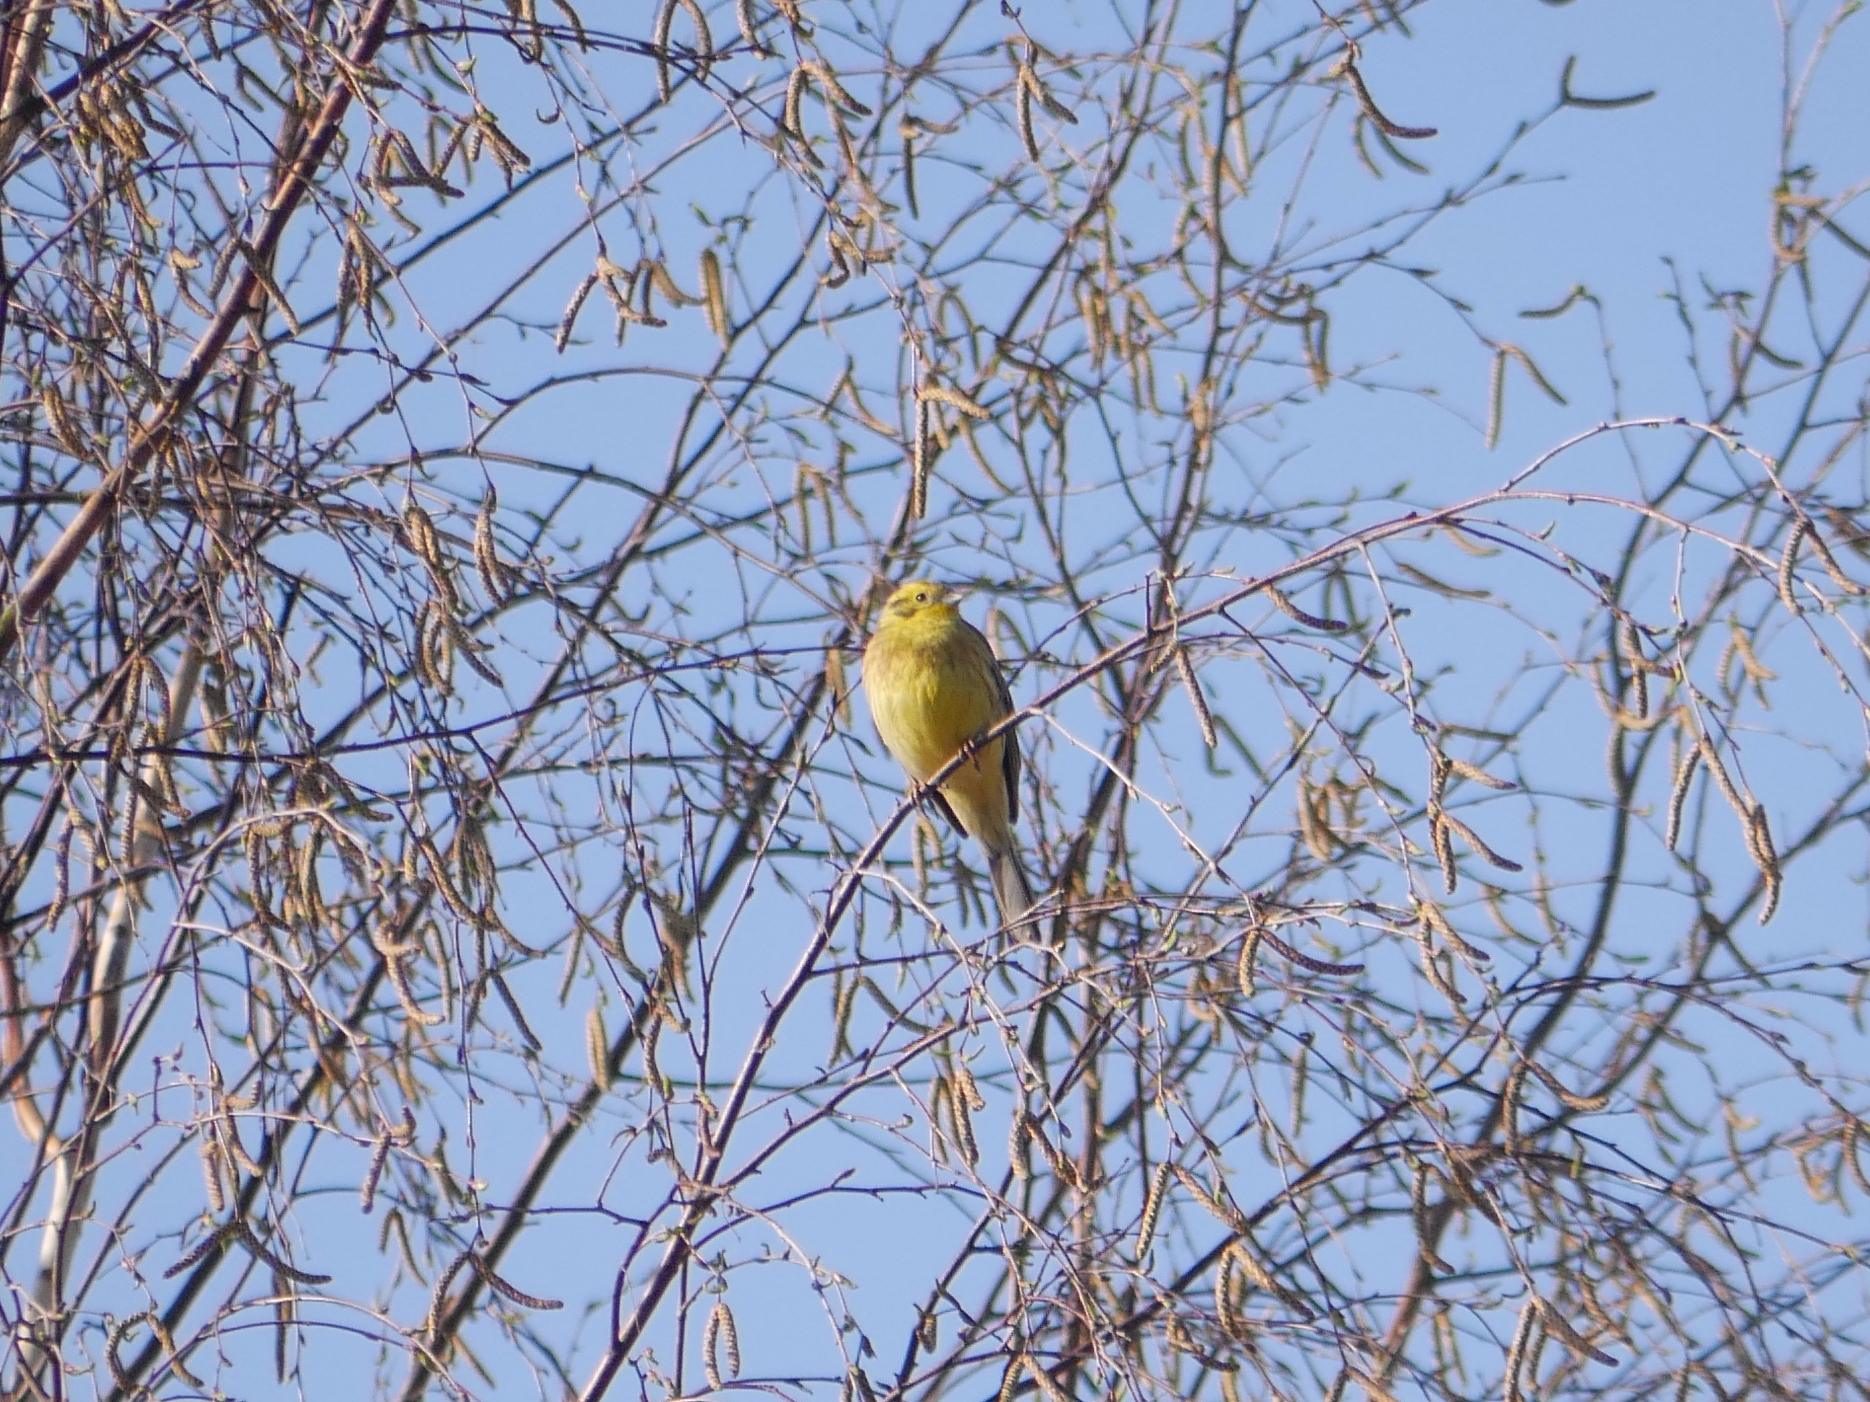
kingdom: Animalia
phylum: Chordata
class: Aves
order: Passeriformes
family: Emberizidae
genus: Emberiza
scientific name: Emberiza citrinella
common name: Yellowhammer
